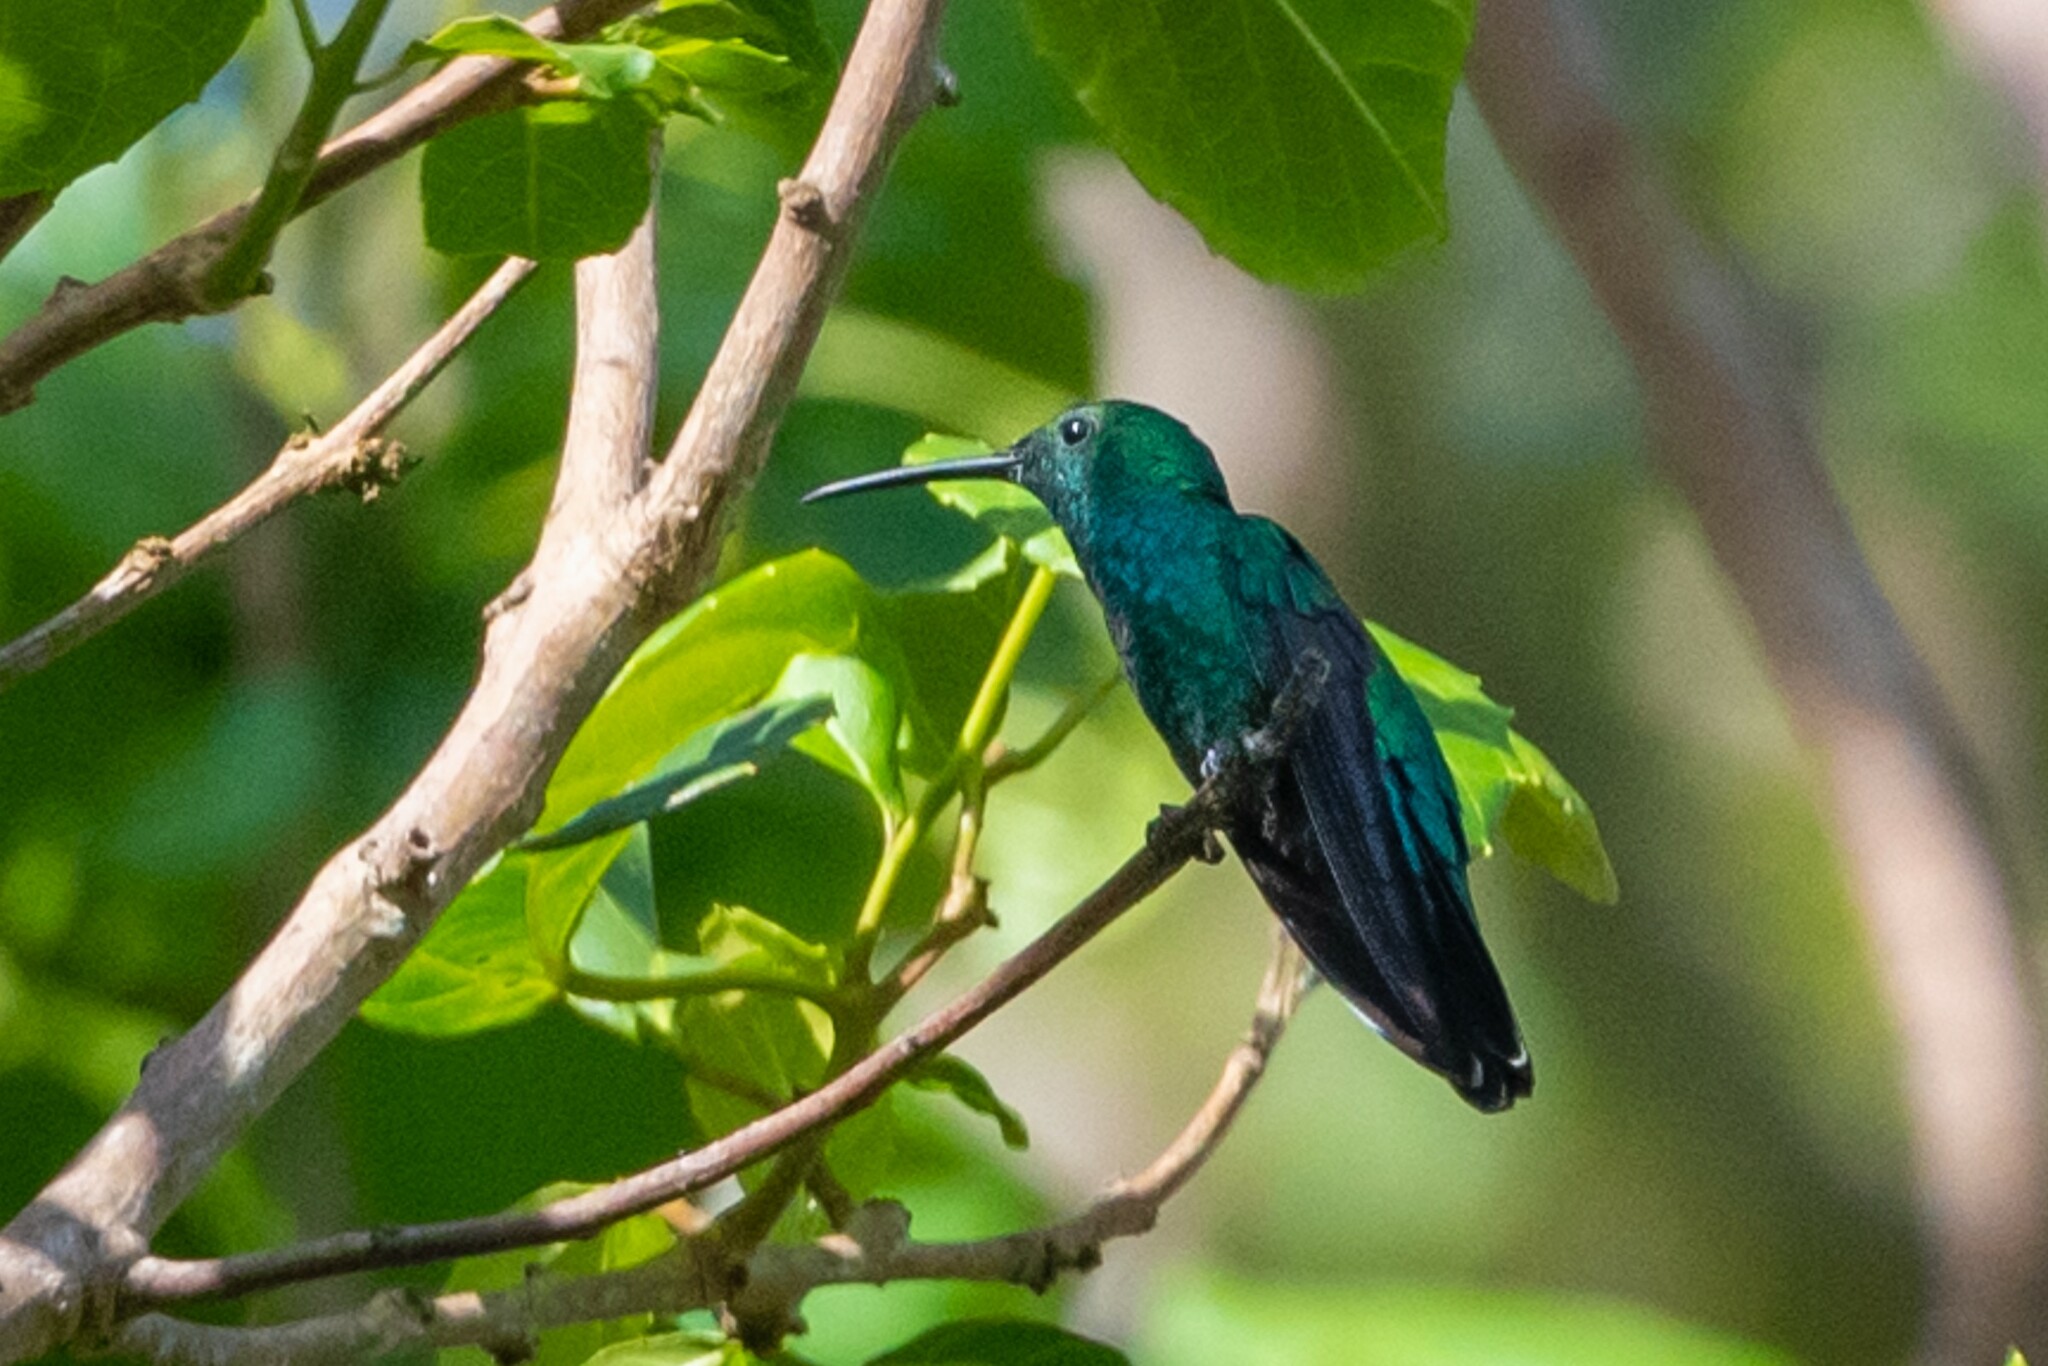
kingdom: Animalia
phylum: Chordata
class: Aves
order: Apodiformes
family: Trochilidae
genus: Anthracothorax
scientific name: Anthracothorax viridis
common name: Green mango
